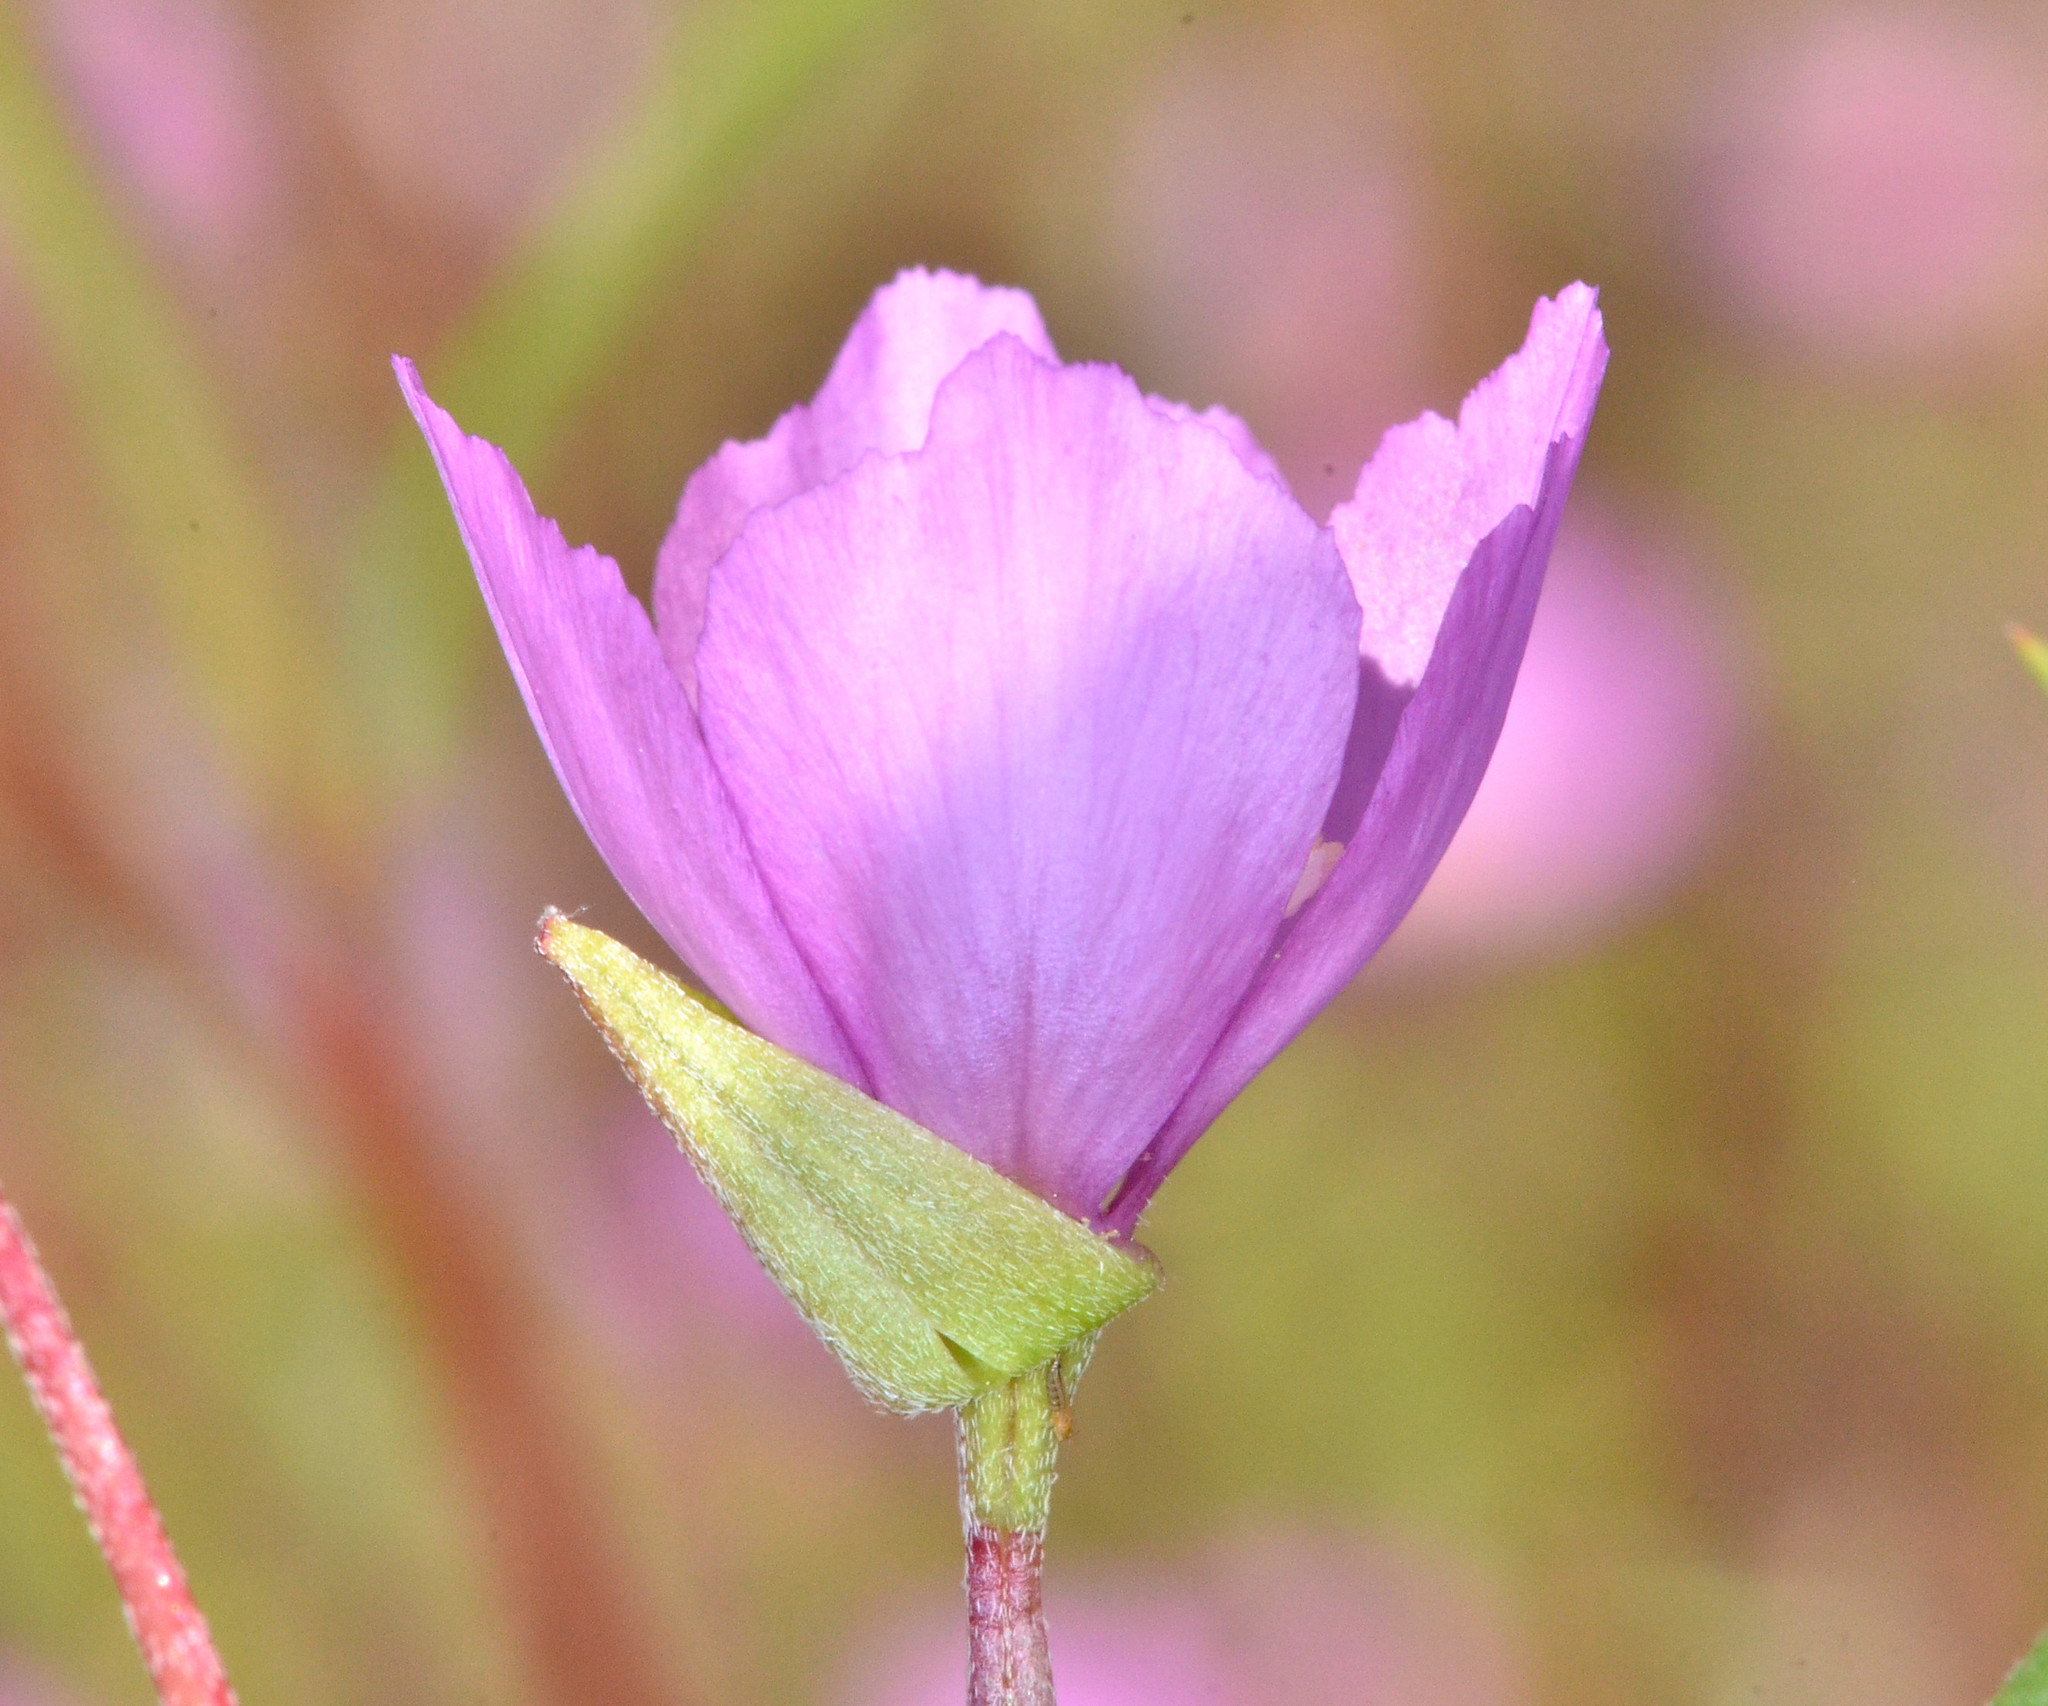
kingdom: Plantae
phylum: Tracheophyta
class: Magnoliopsida
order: Myrtales
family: Onagraceae
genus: Clarkia
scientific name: Clarkia gracilis
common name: Graceful clarkia
